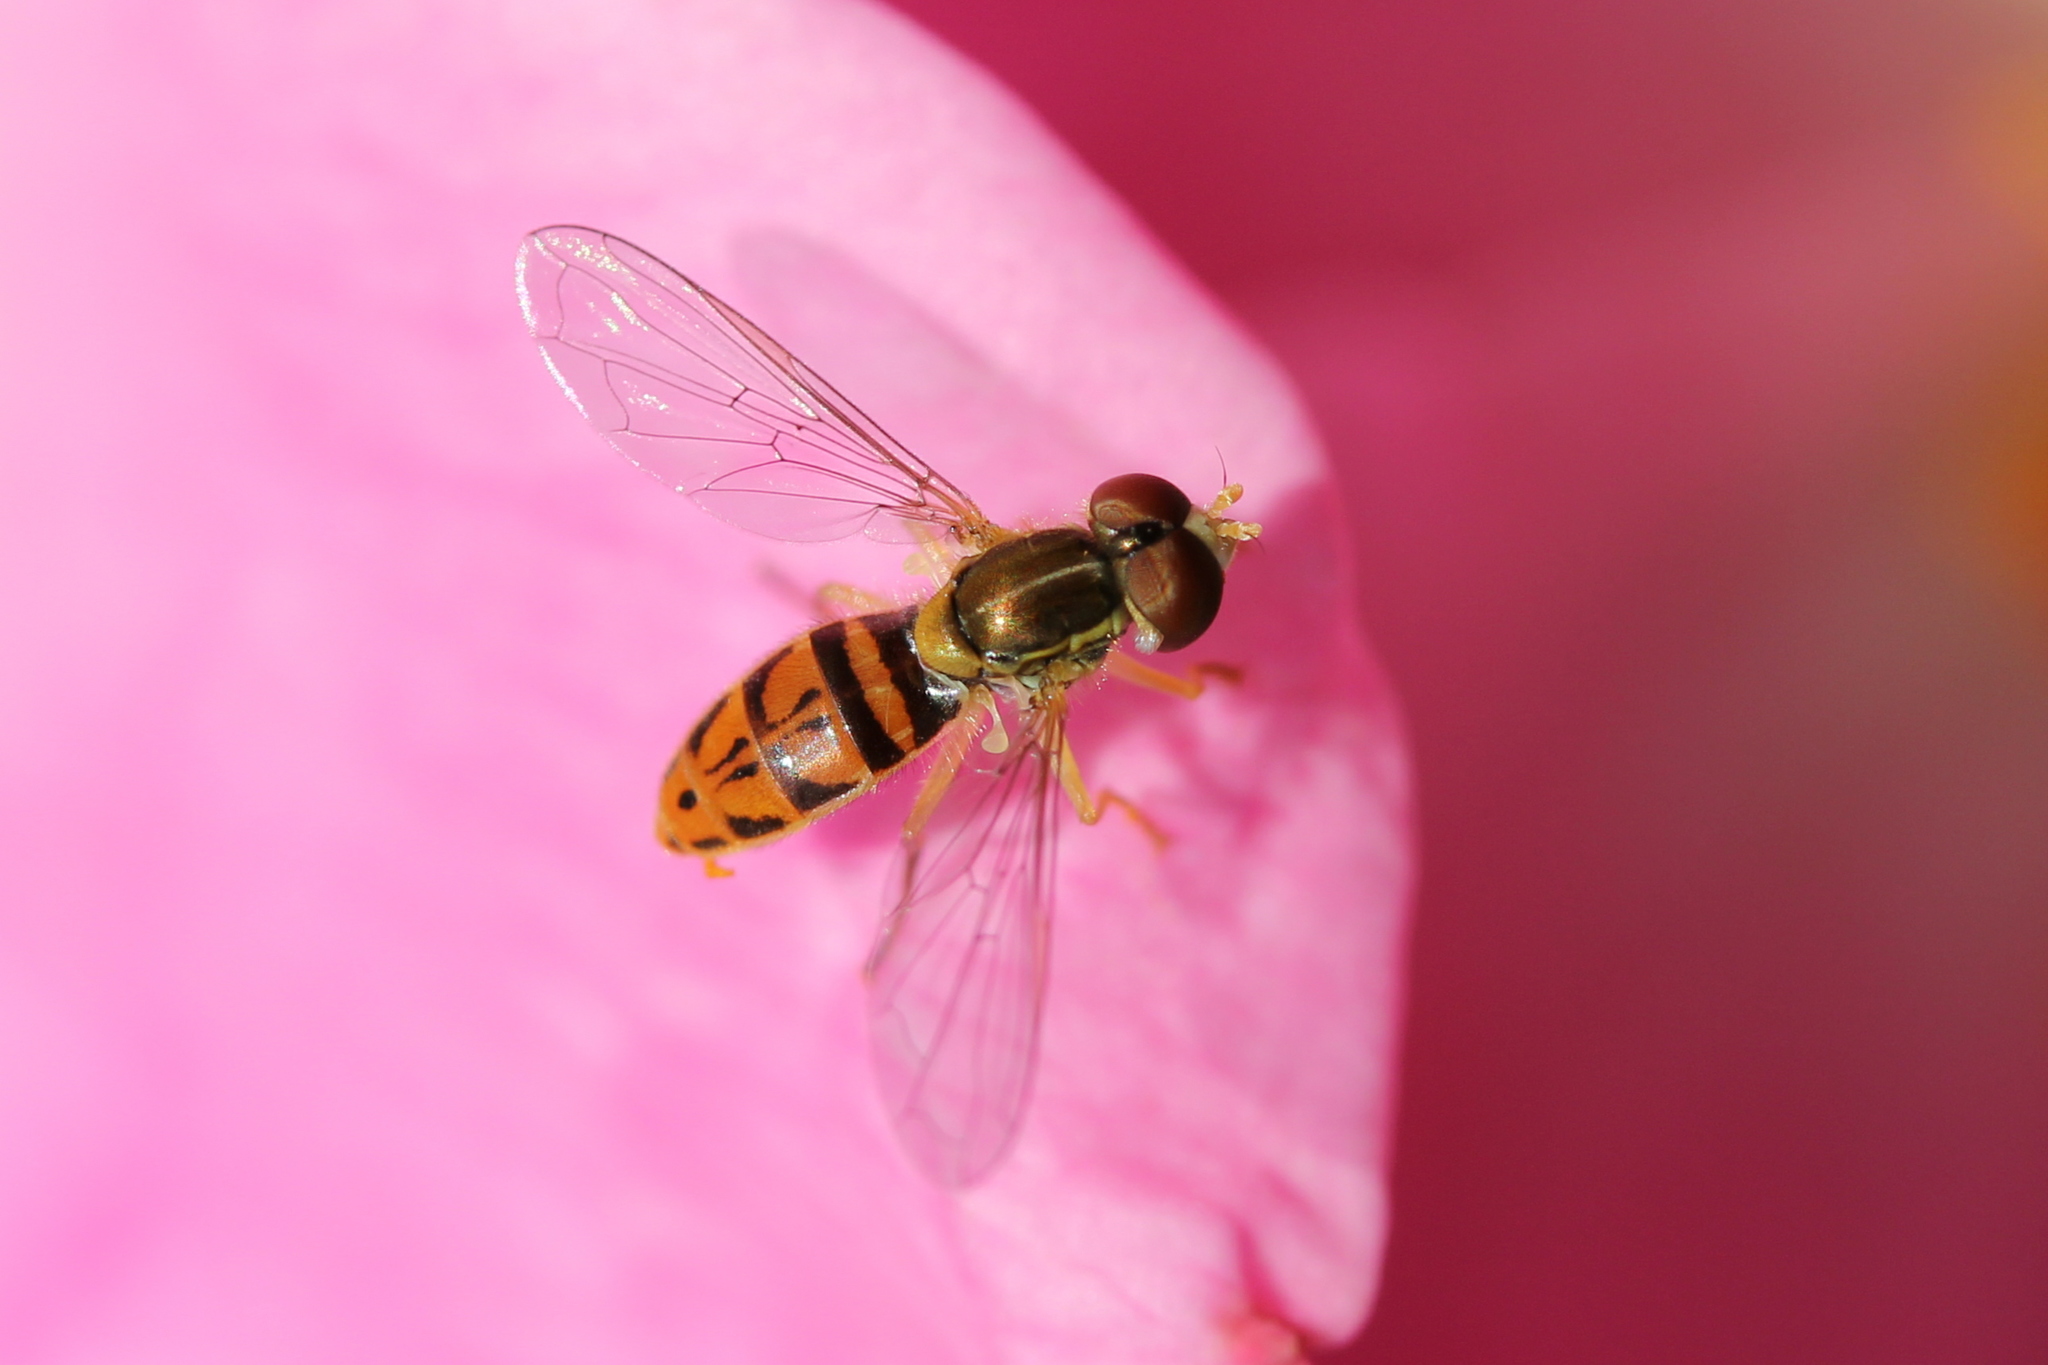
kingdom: Animalia
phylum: Arthropoda
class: Insecta
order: Diptera
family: Syrphidae
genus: Toxomerus
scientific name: Toxomerus marginatus
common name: Syrphid fly
